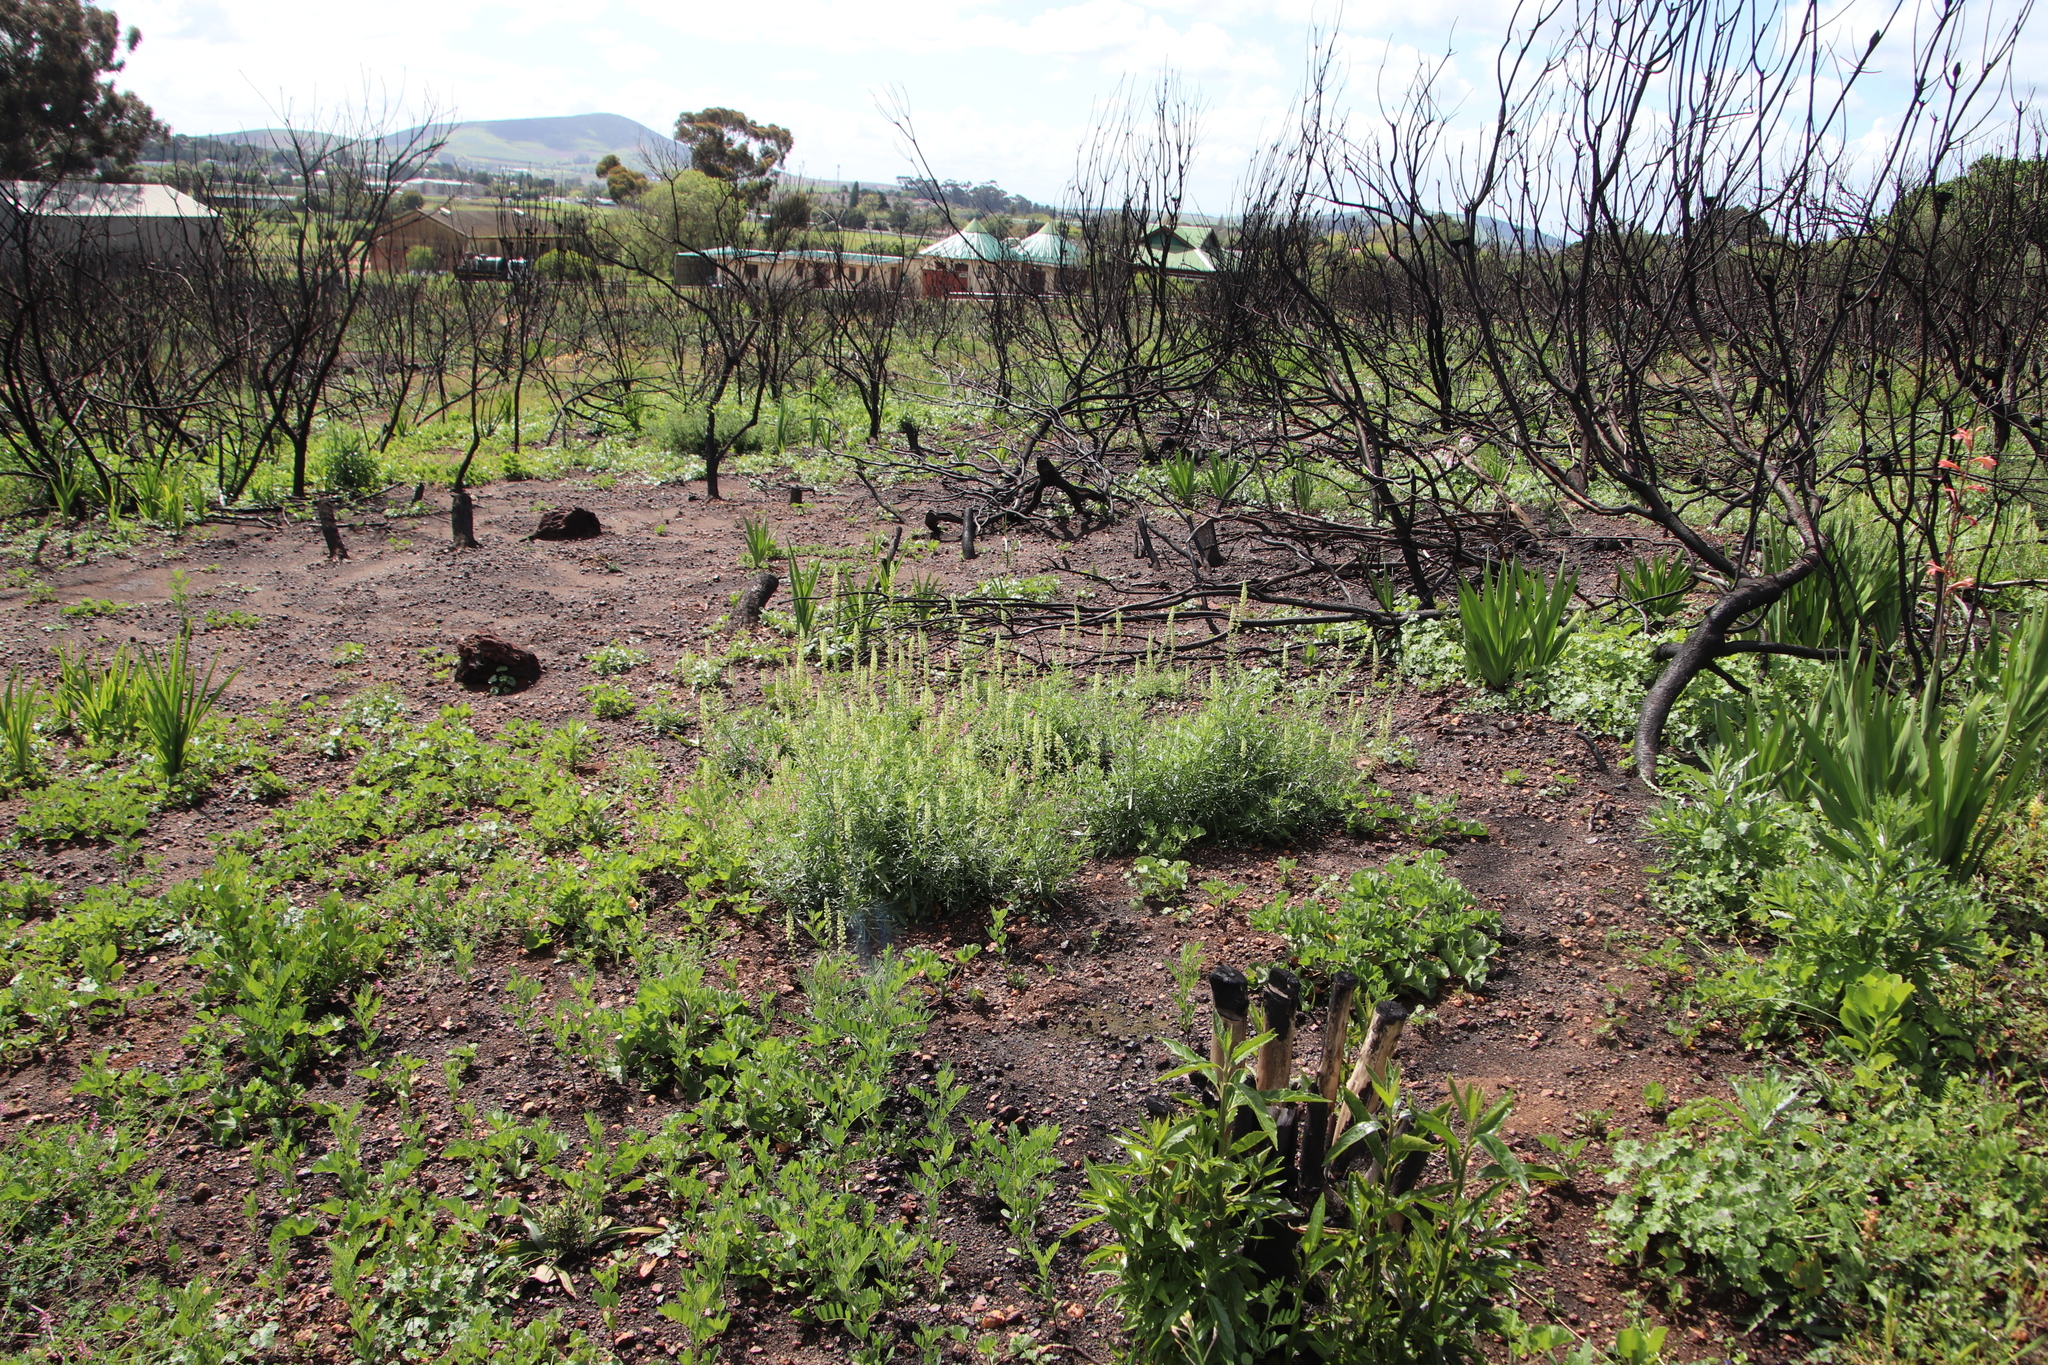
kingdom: Plantae
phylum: Tracheophyta
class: Magnoliopsida
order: Brassicales
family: Resedaceae
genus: Reseda
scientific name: Reseda lutea
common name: Wild mignonette
